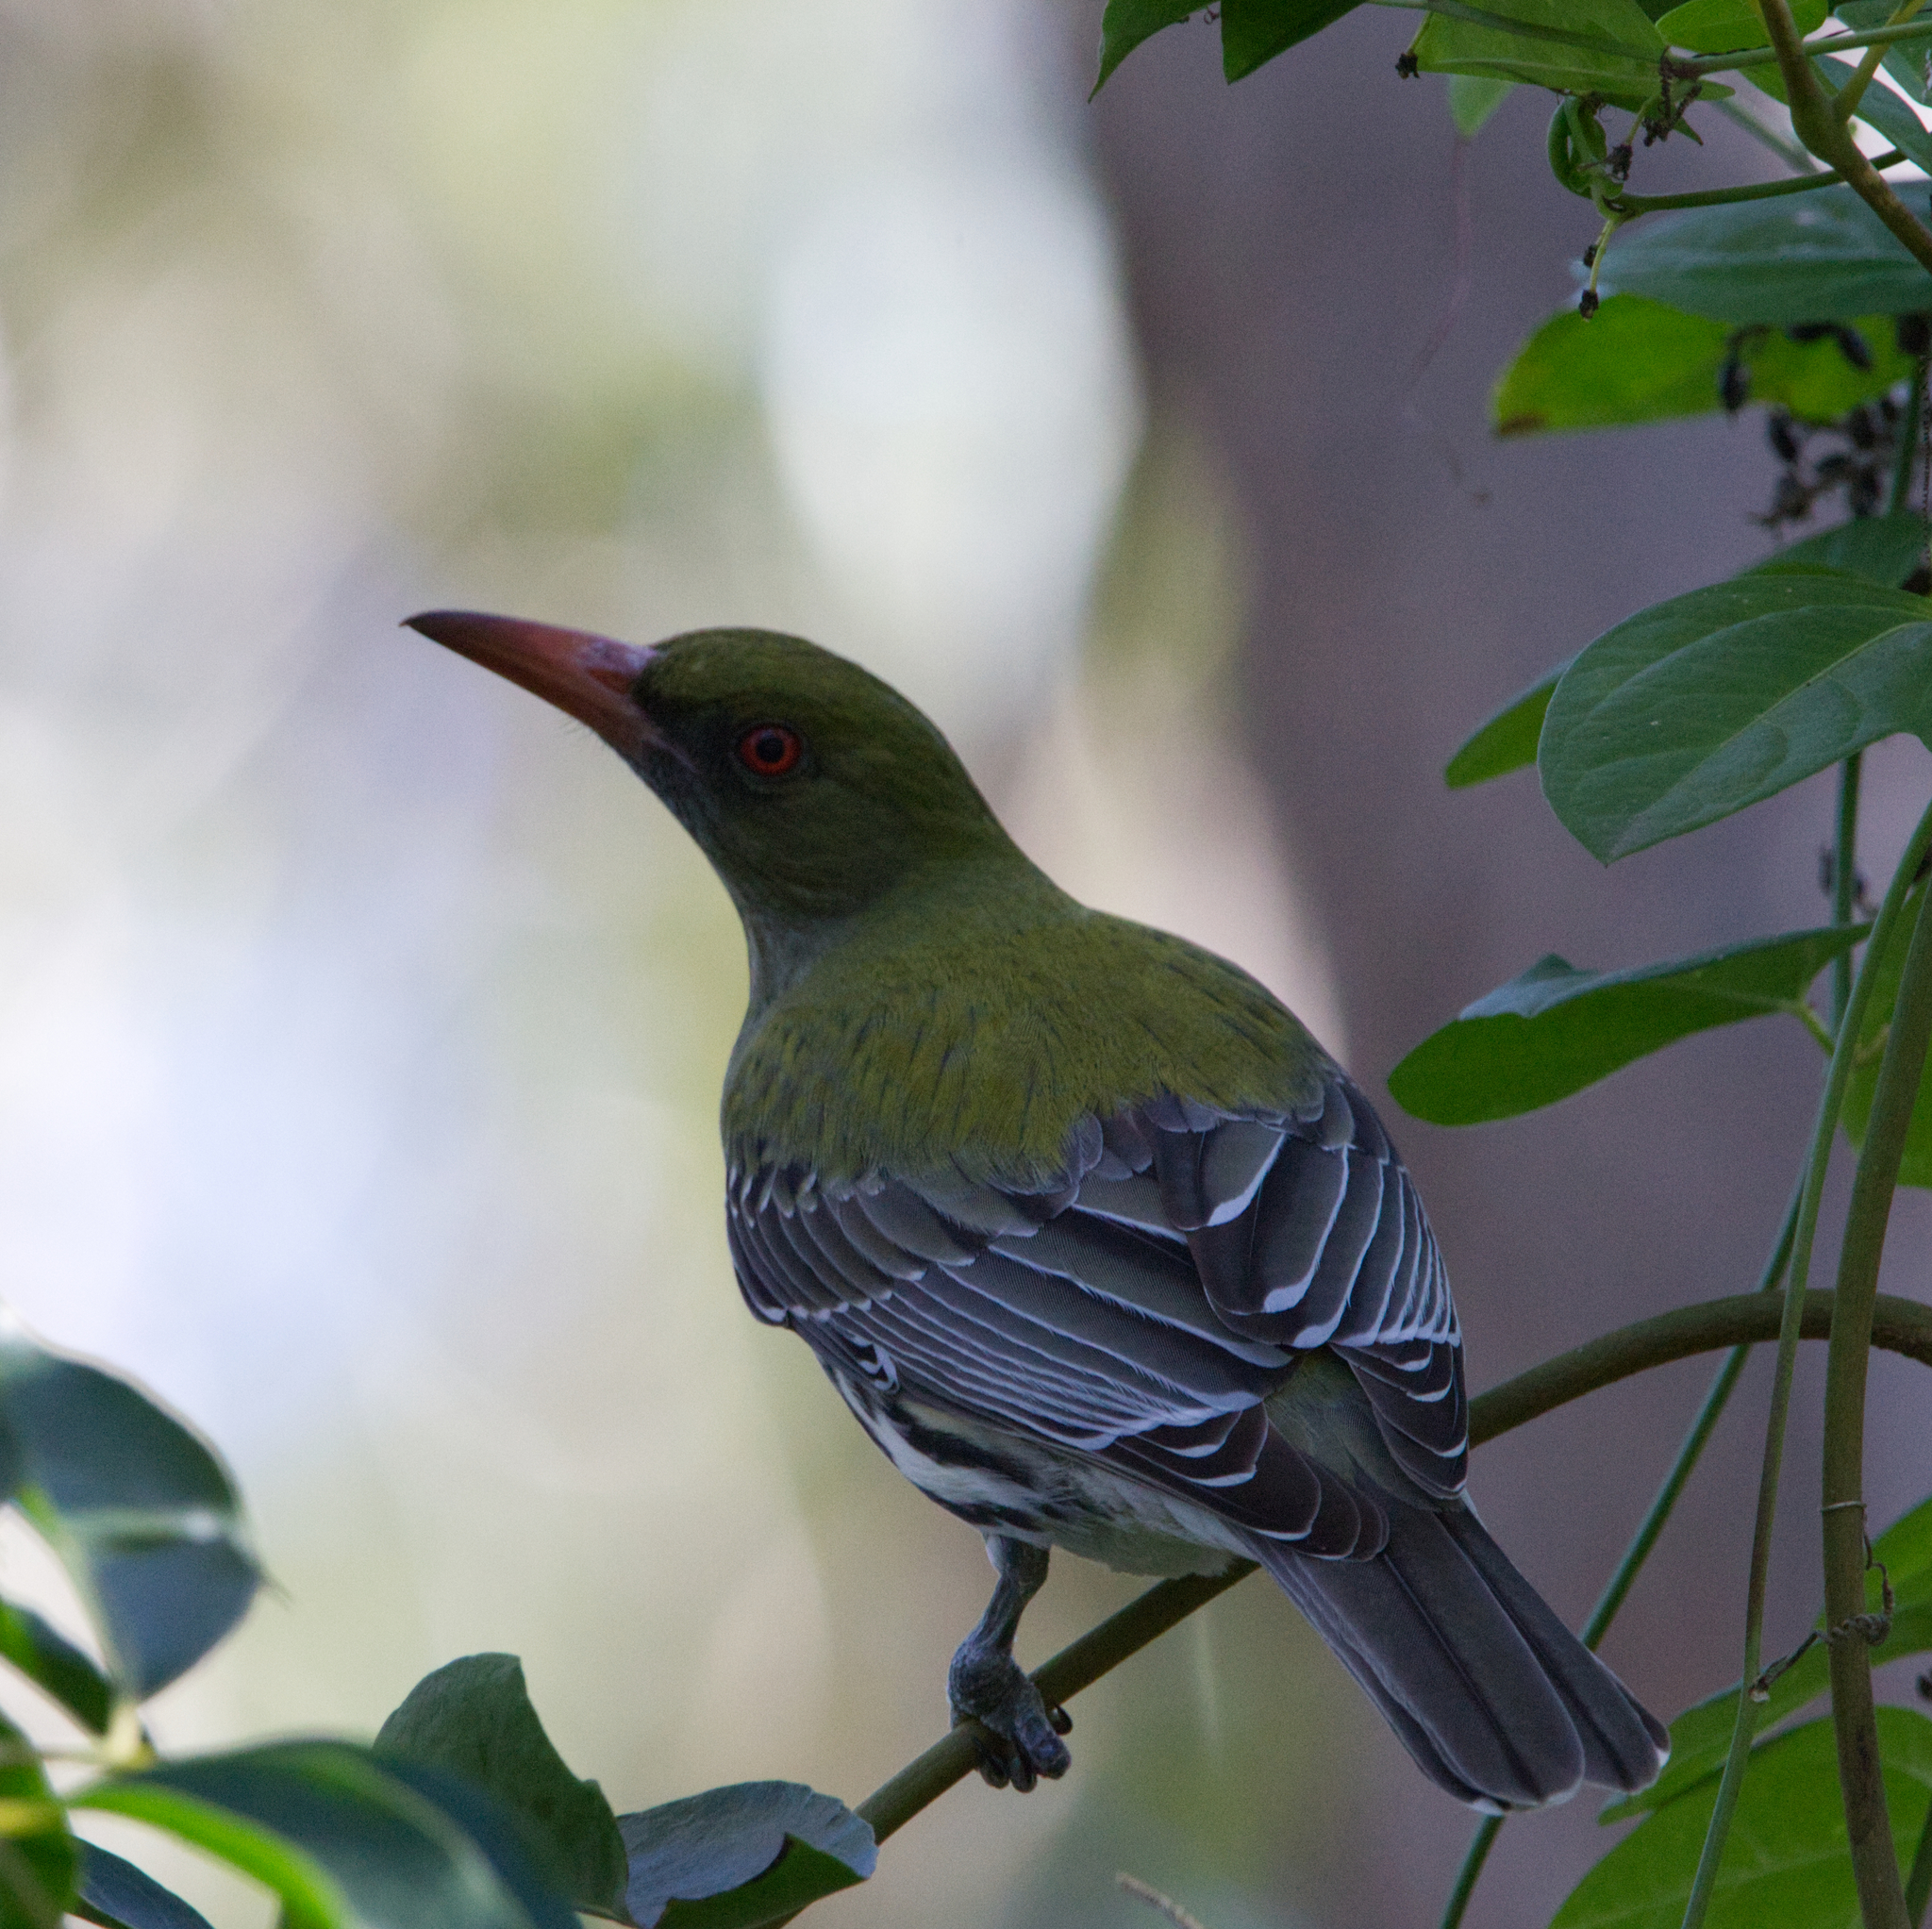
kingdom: Animalia
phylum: Chordata
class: Aves
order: Passeriformes
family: Oriolidae
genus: Oriolus
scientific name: Oriolus sagittatus
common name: Olive-backed oriole
